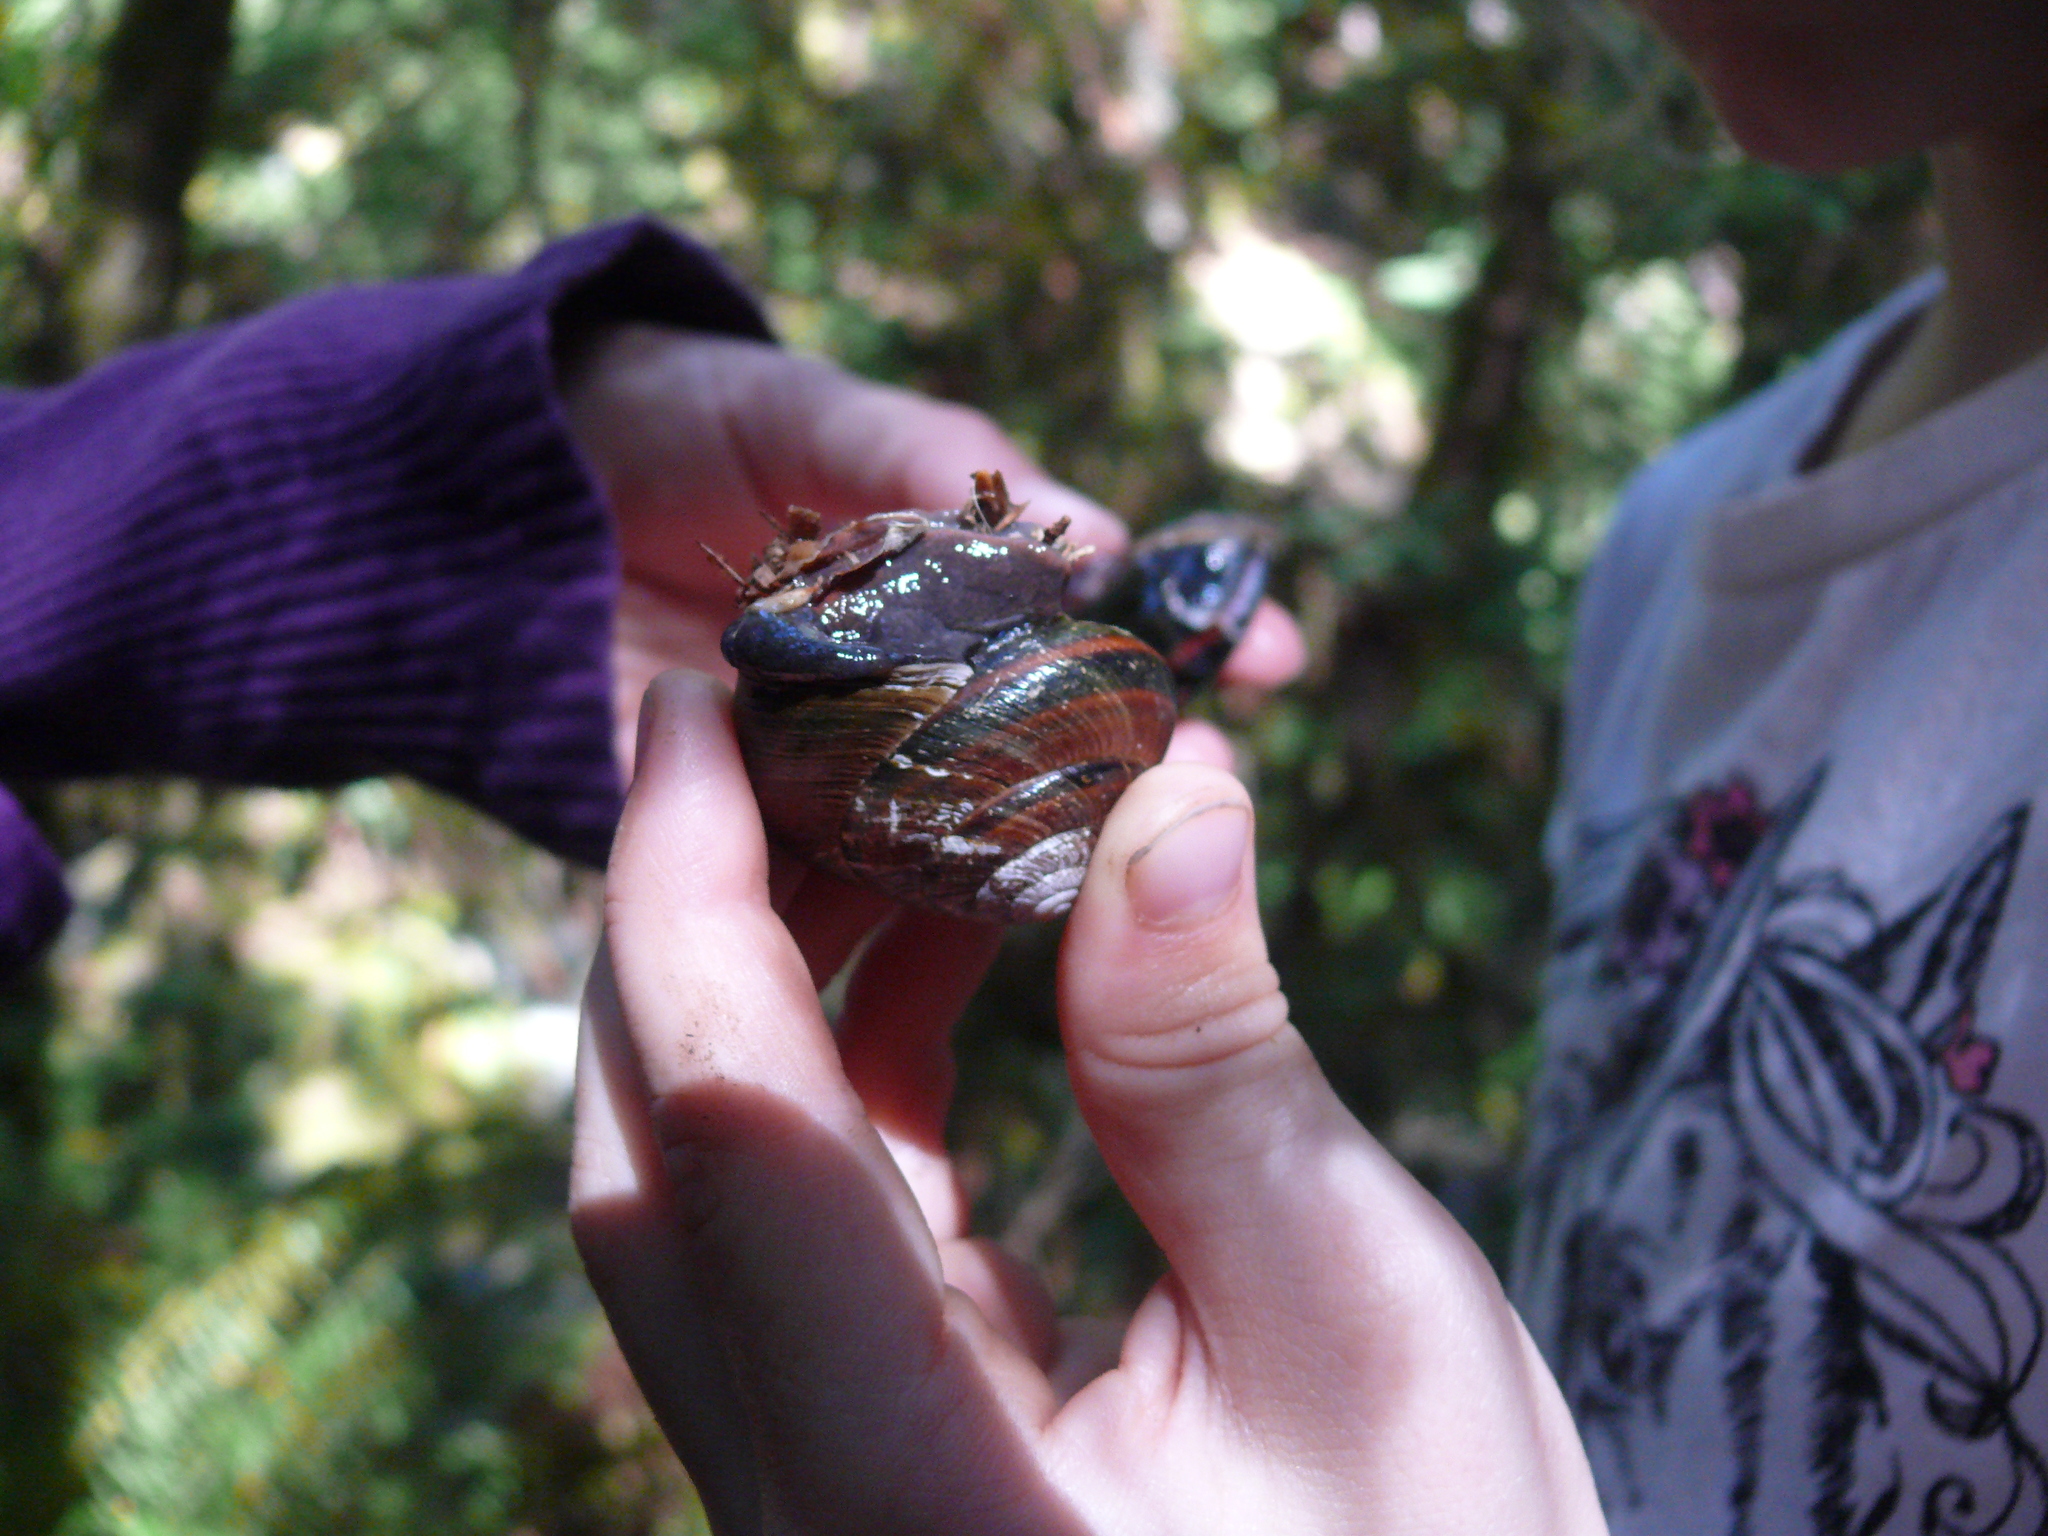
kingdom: Animalia
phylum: Mollusca
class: Gastropoda
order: Stylommatophora
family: Xanthonychidae
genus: Monadenia
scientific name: Monadenia fidelis
